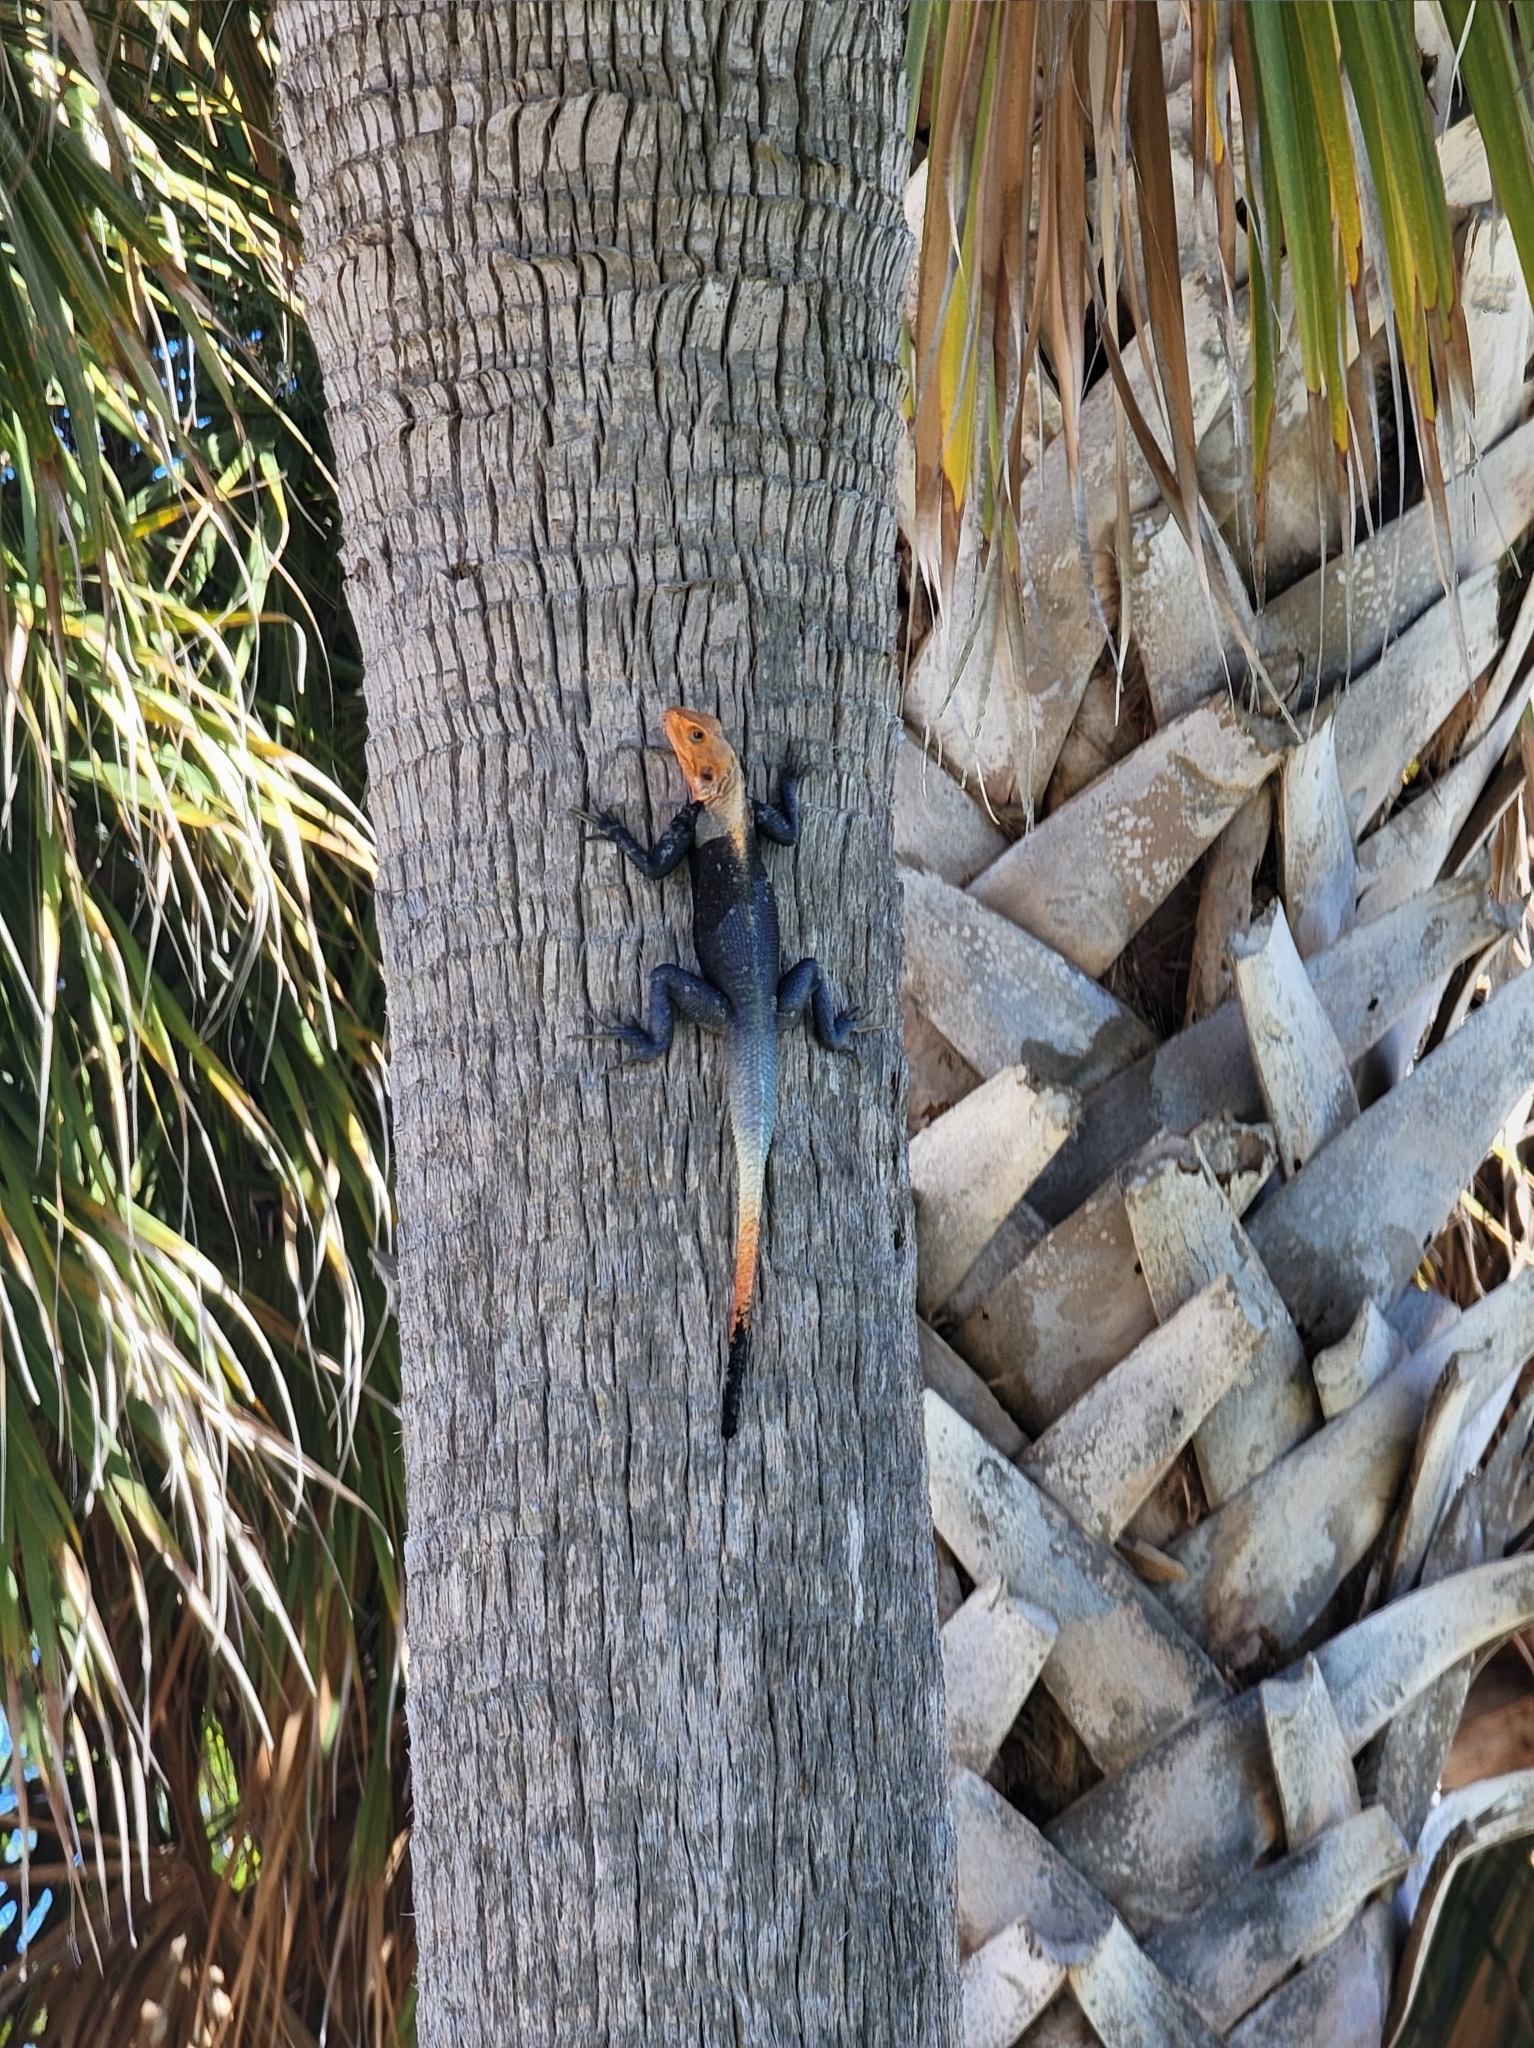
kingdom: Animalia
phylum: Chordata
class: Squamata
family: Agamidae
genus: Agama
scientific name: Agama picticauda
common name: Red-headed agama
